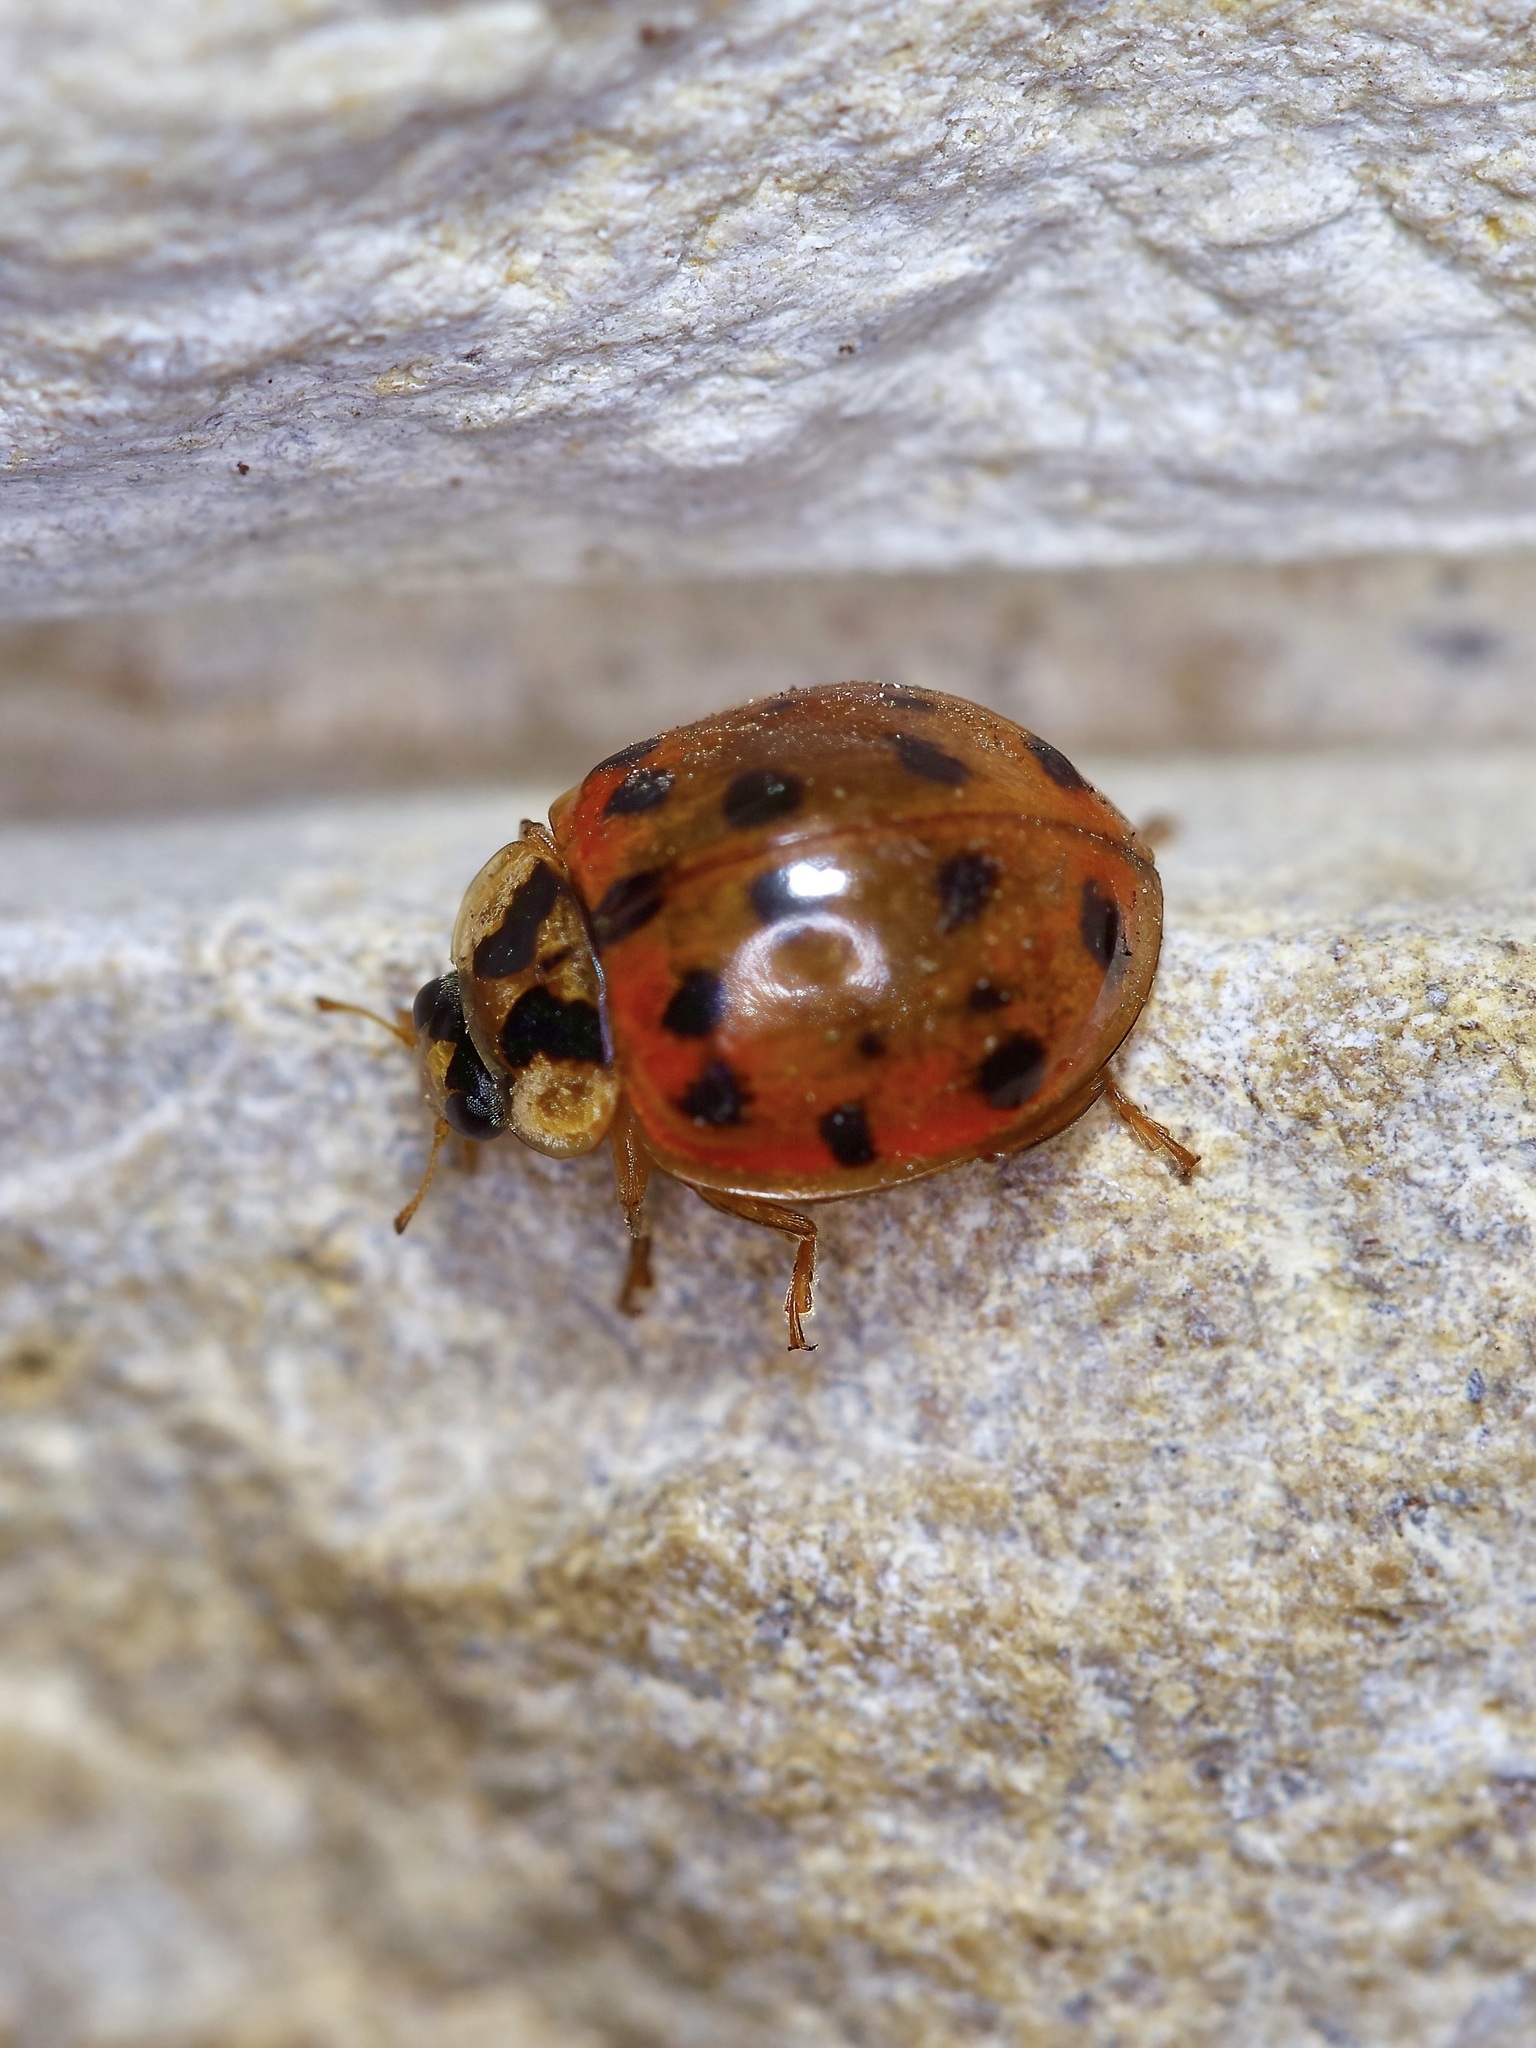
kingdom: Animalia
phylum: Arthropoda
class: Insecta
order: Coleoptera
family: Coccinellidae
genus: Harmonia
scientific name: Harmonia axyridis
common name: Harlequin ladybird
